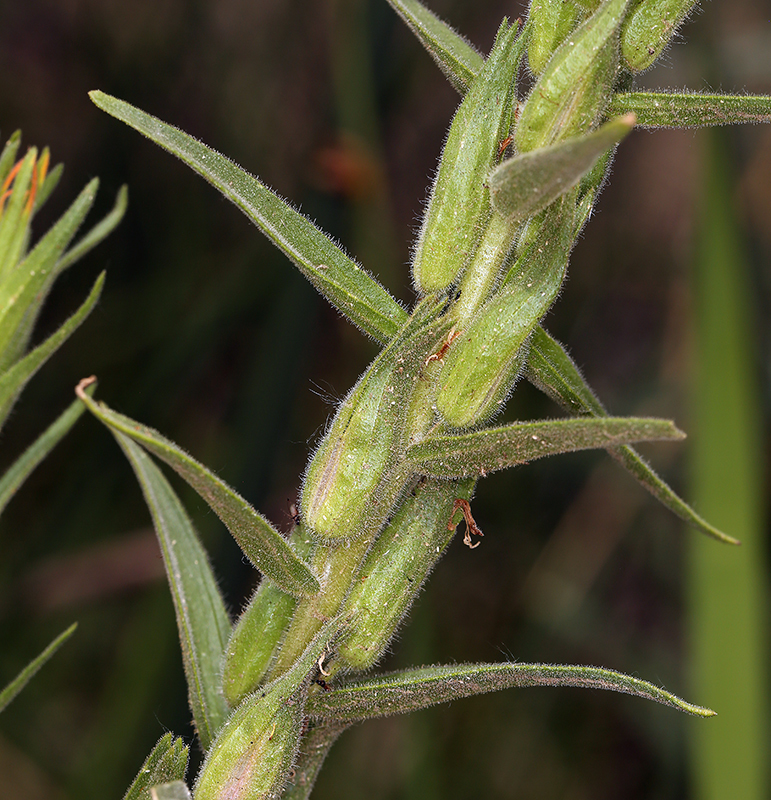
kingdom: Plantae
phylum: Tracheophyta
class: Magnoliopsida
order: Lamiales
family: Orobanchaceae
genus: Castilleja
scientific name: Castilleja minor
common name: Seep paintbrush
